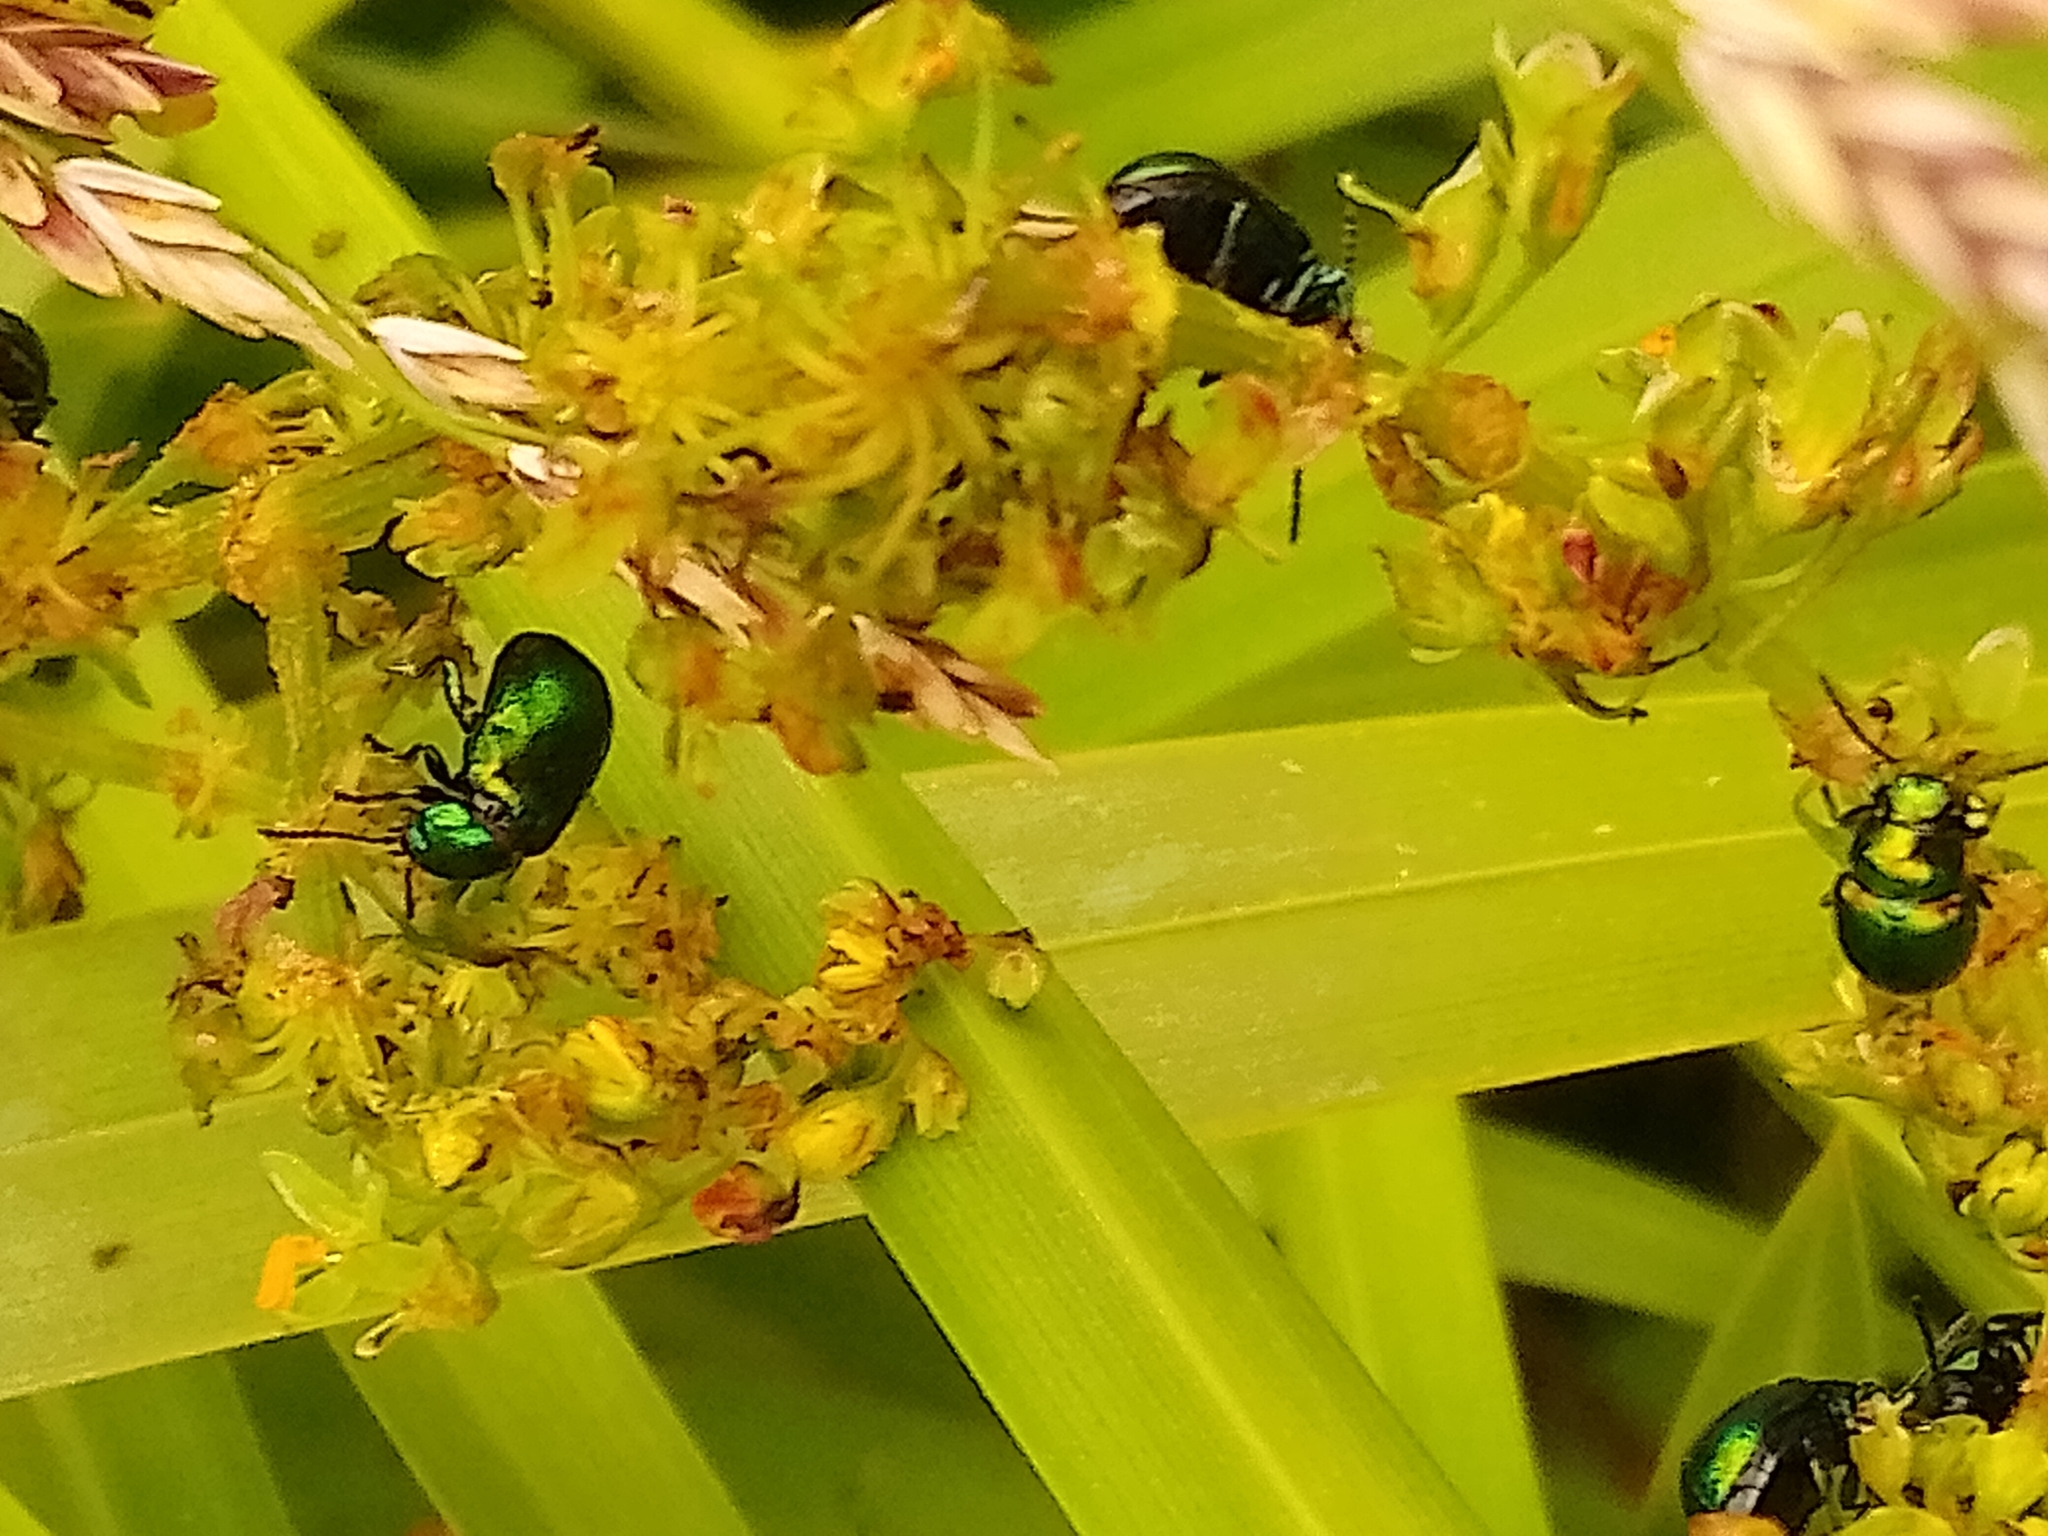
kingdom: Animalia
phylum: Arthropoda
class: Insecta
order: Coleoptera
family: Chrysomelidae
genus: Gastrophysa
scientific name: Gastrophysa viridula
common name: Green dock beetle
